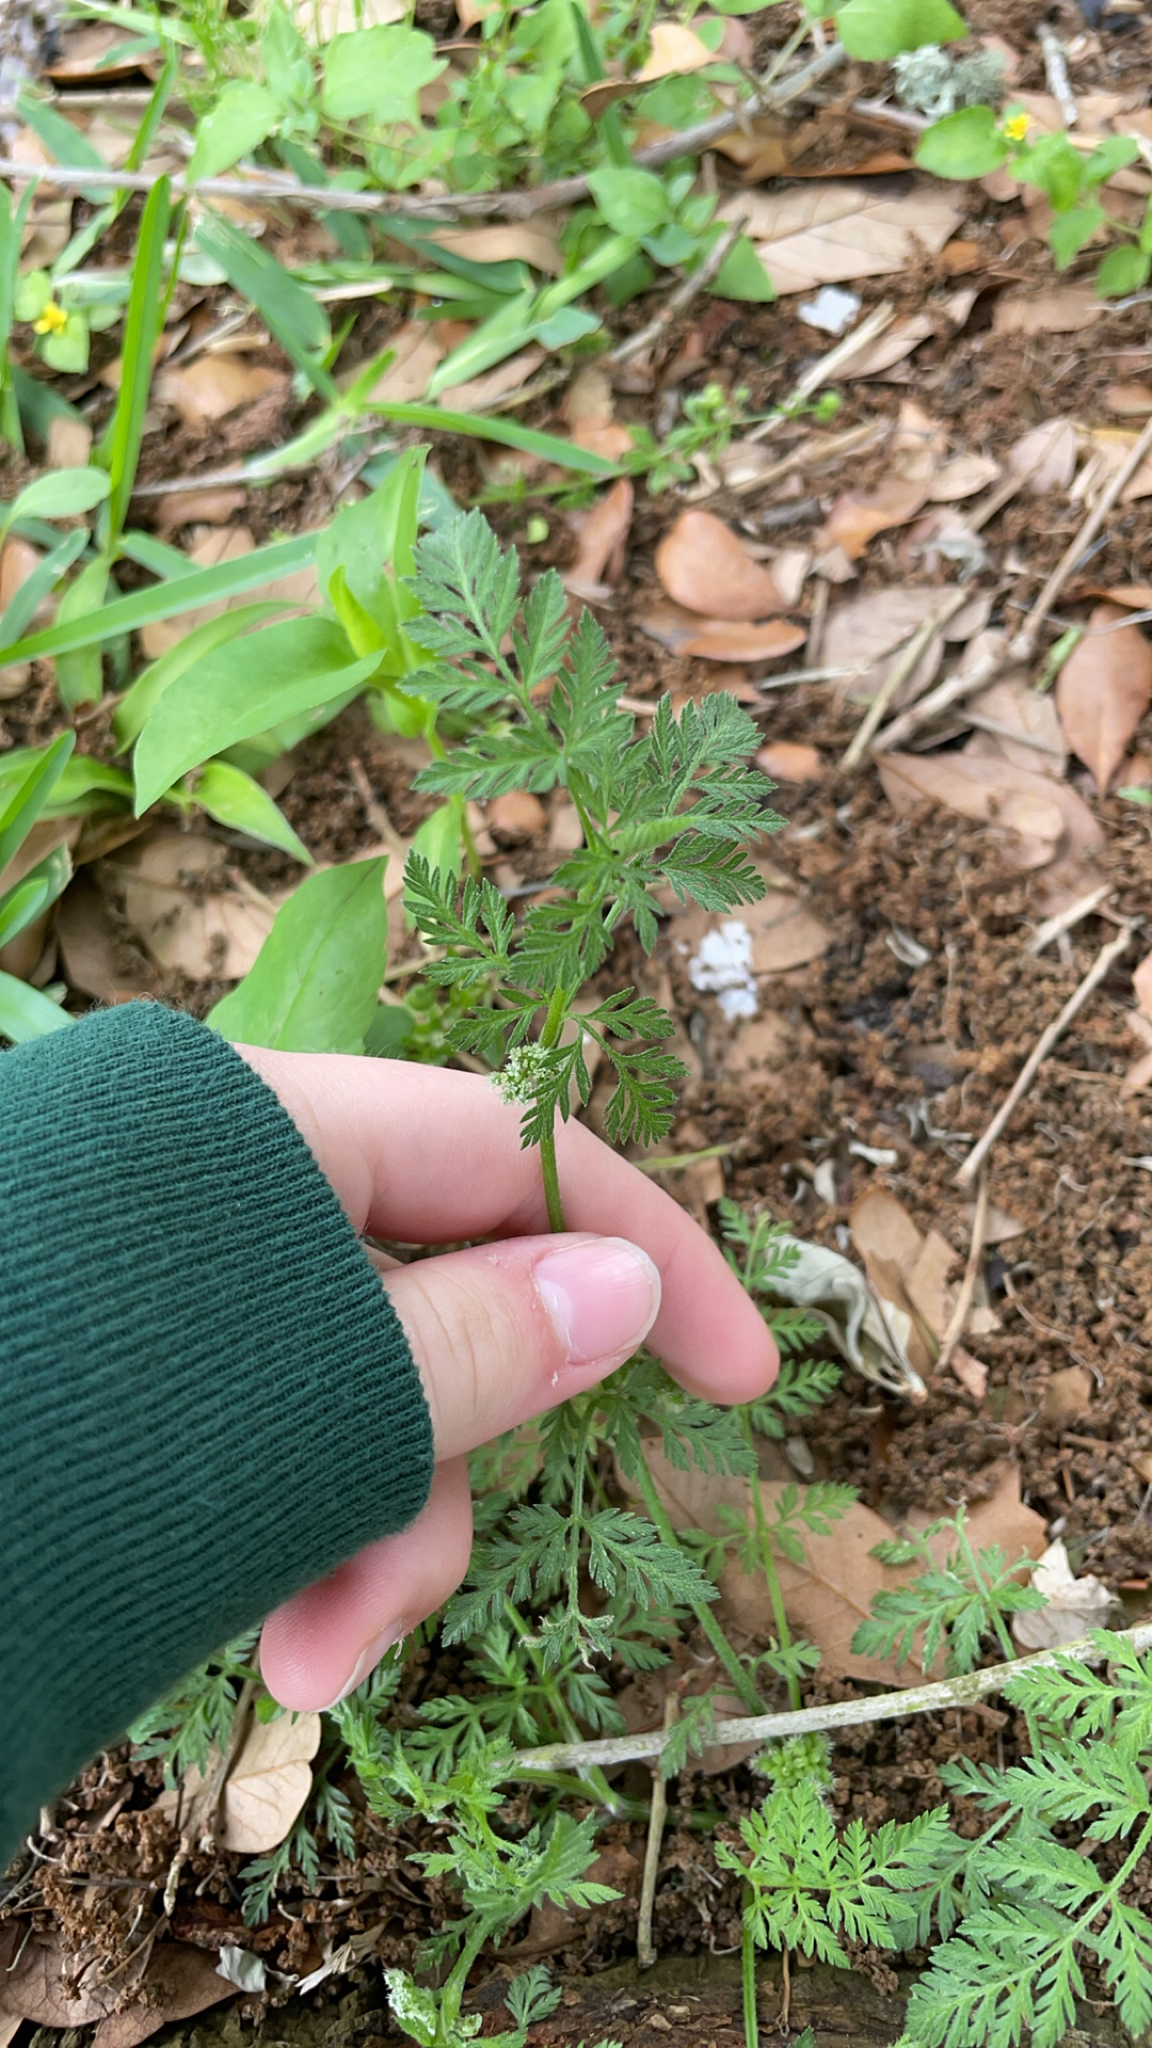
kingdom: Plantae
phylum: Tracheophyta
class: Magnoliopsida
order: Apiales
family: Apiaceae
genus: Torilis
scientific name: Torilis nodosa
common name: Knotted hedge-parsley
